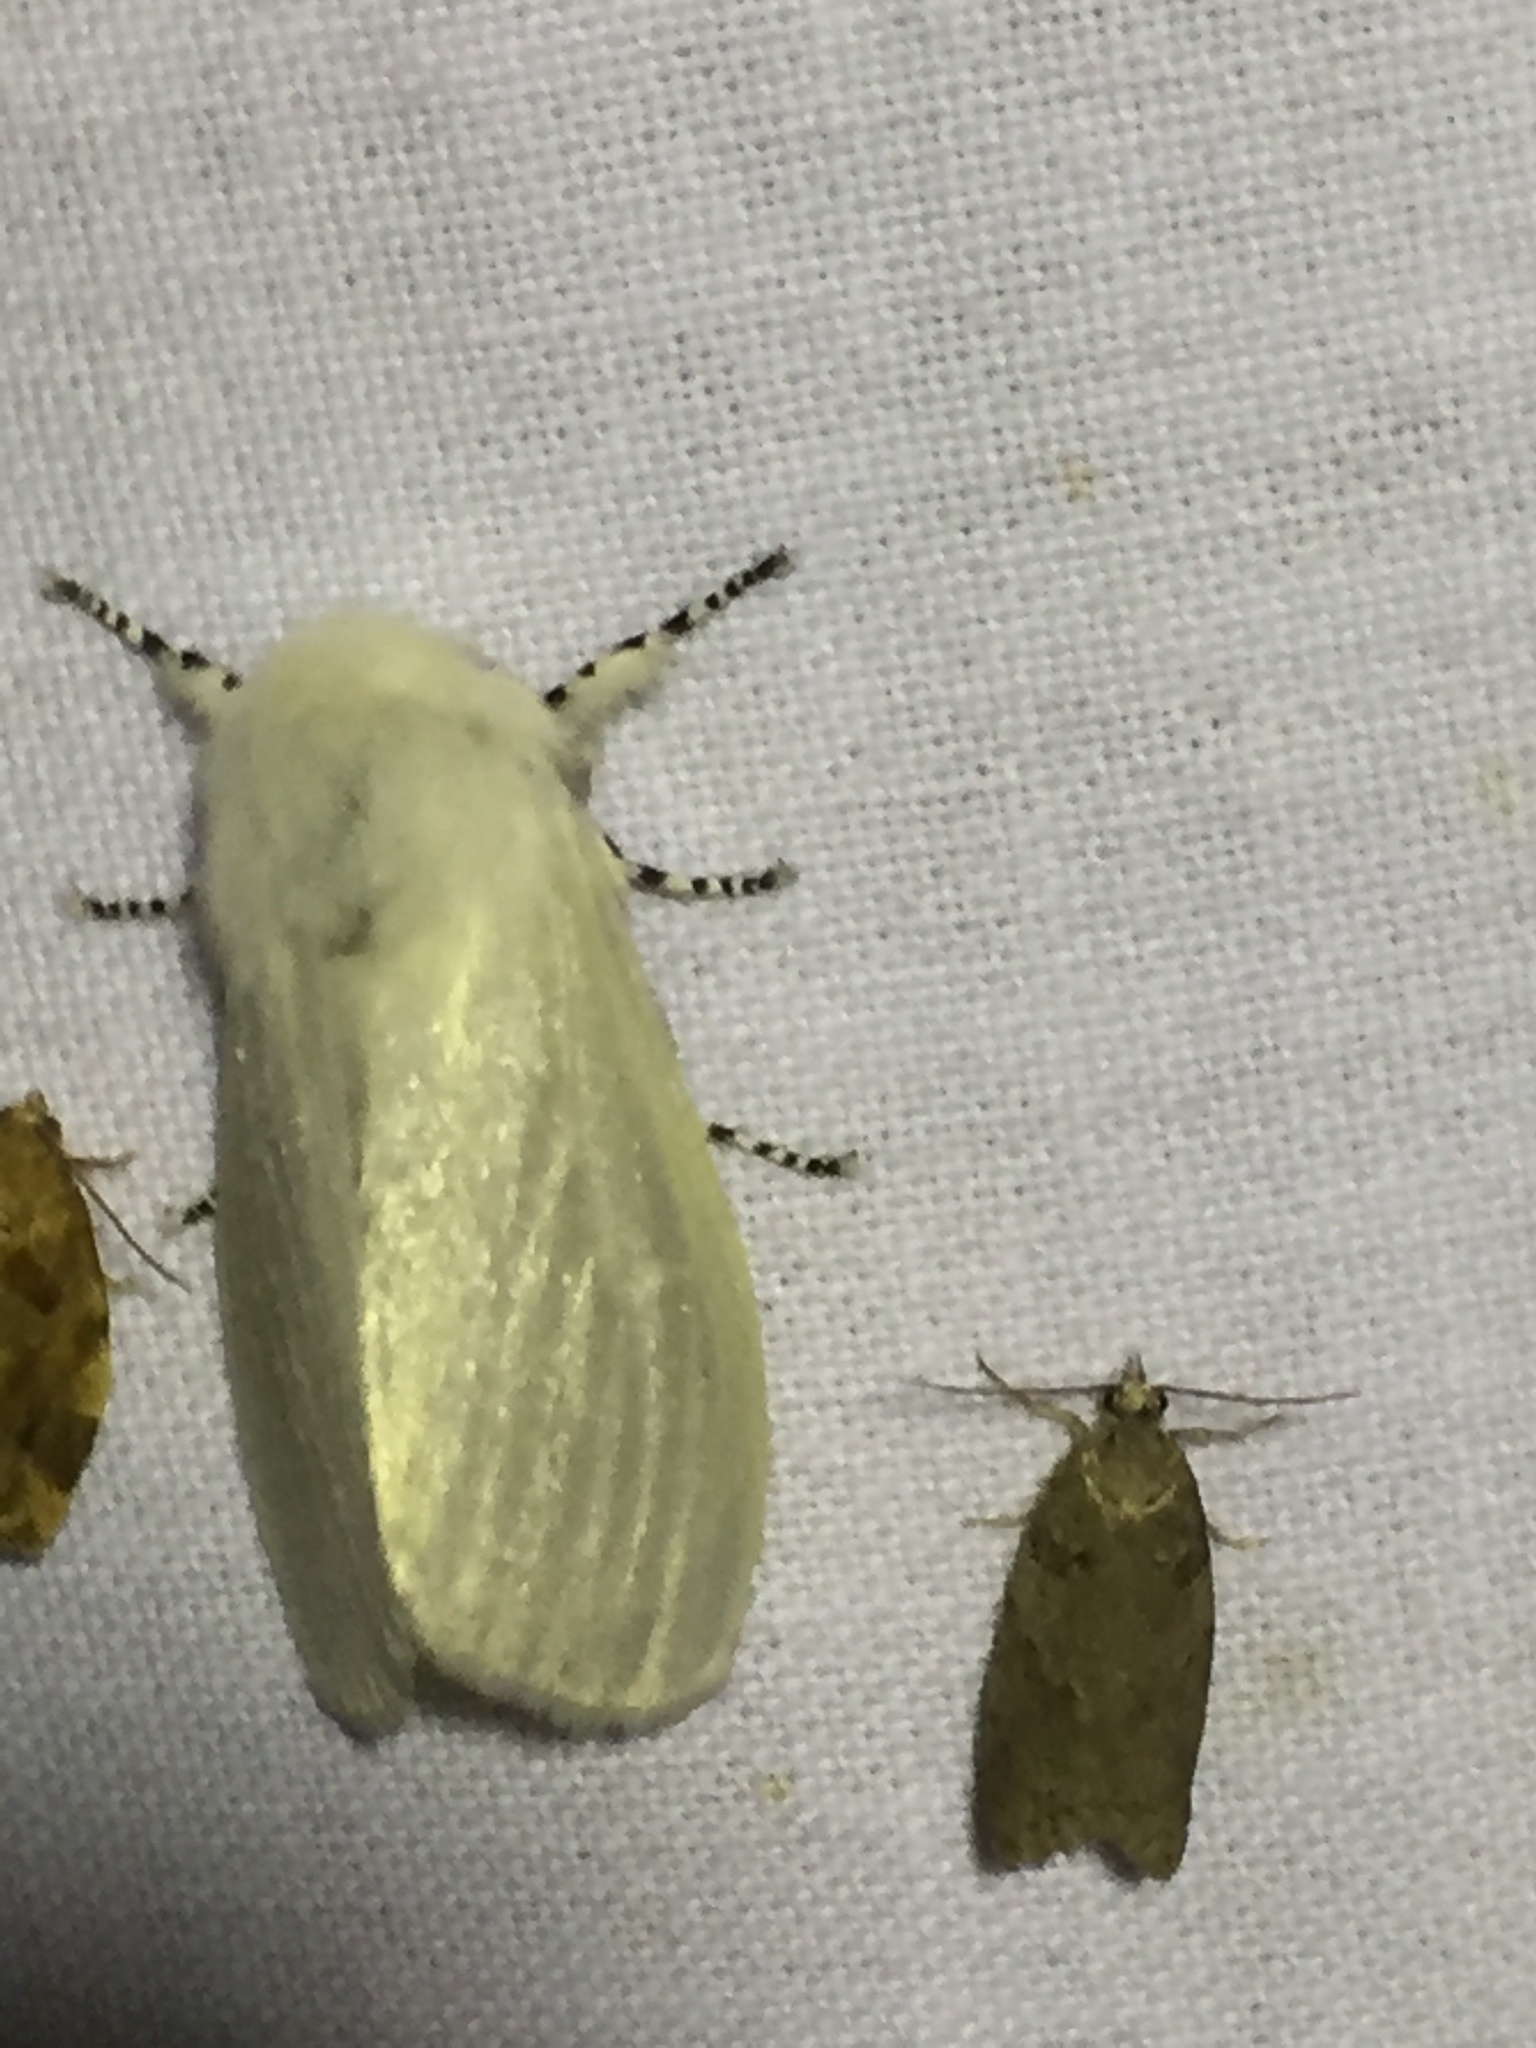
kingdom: Animalia
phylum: Arthropoda
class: Insecta
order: Lepidoptera
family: Erebidae
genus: Leucoma
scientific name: Leucoma salicis
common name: White satin moth
